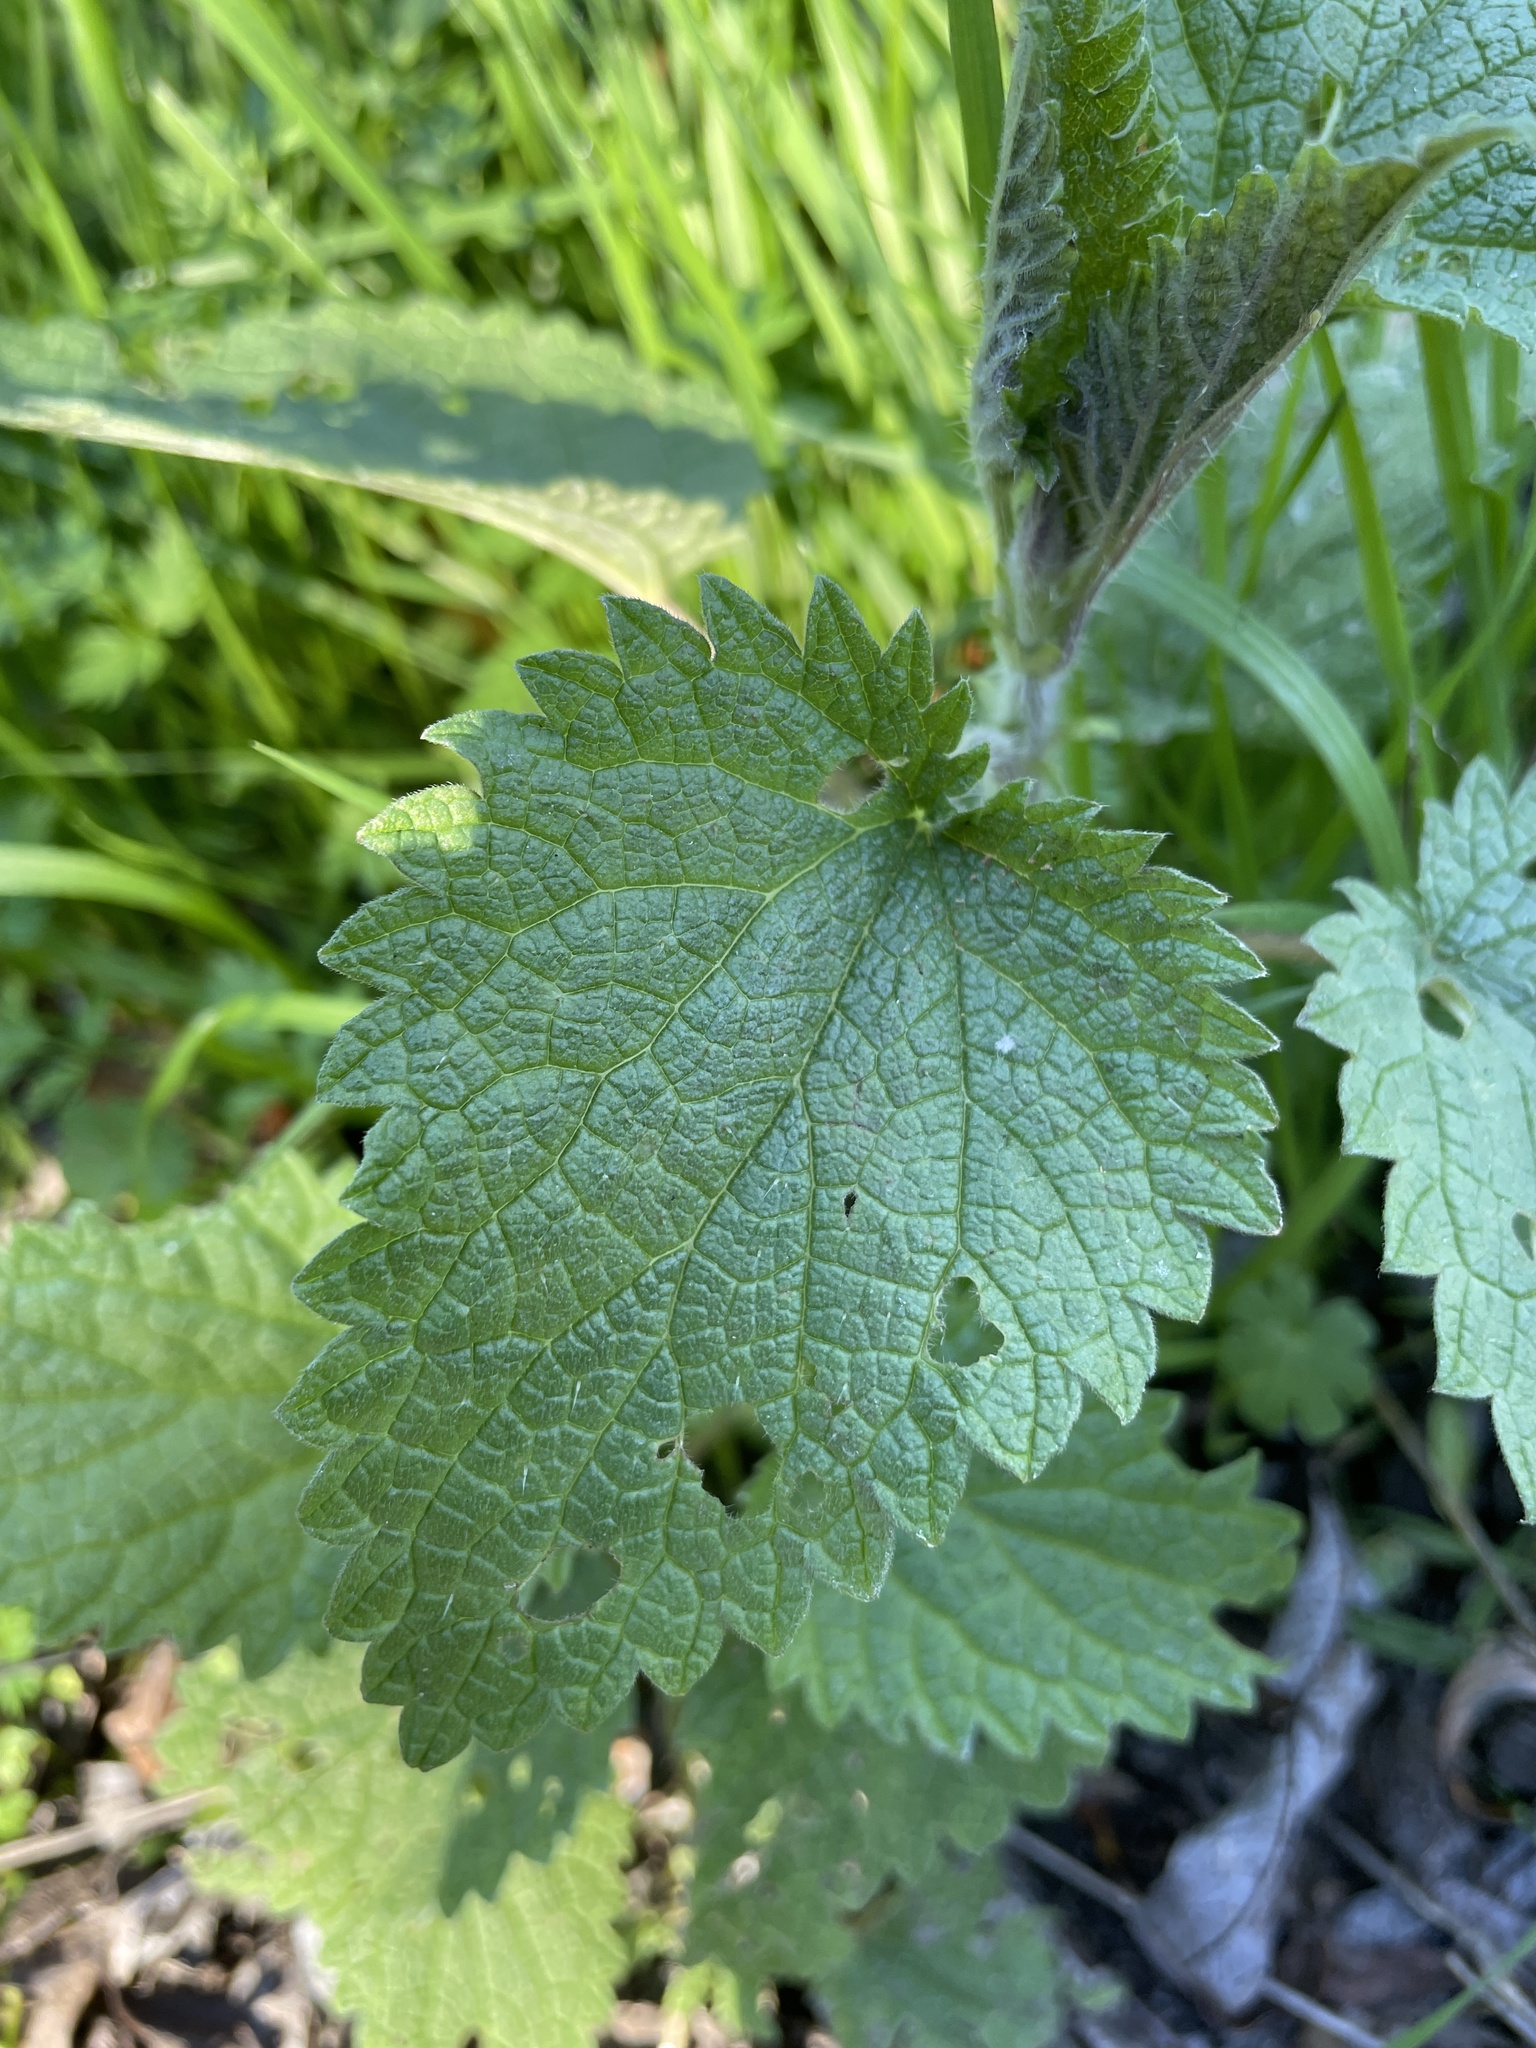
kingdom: Plantae
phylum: Tracheophyta
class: Magnoliopsida
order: Rosales
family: Urticaceae
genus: Urtica
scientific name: Urtica dioica
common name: Common nettle
